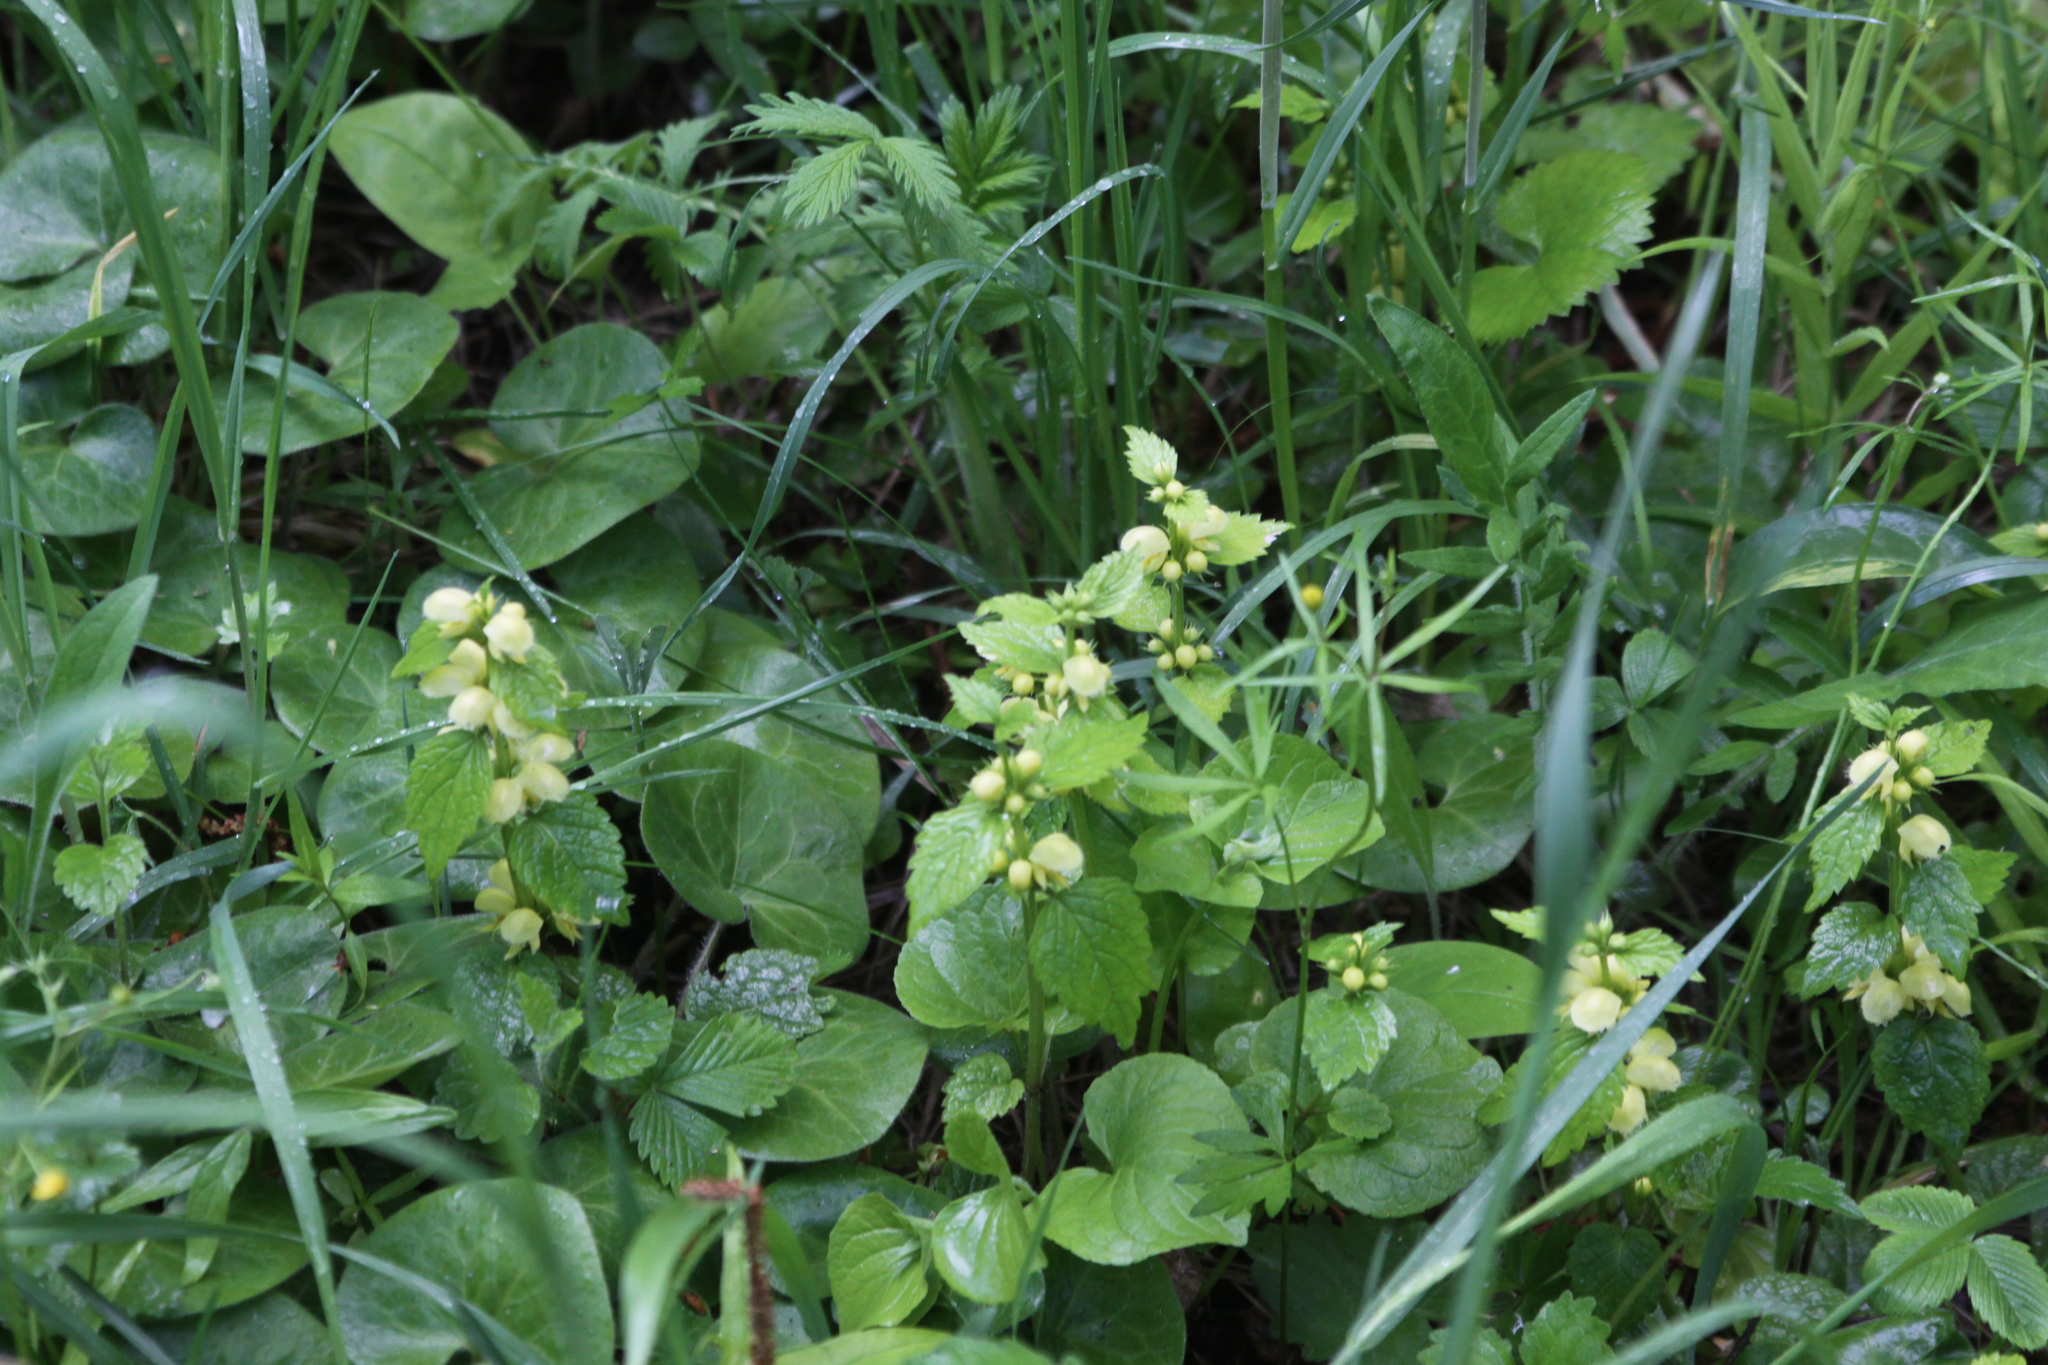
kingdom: Plantae
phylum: Tracheophyta
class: Magnoliopsida
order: Lamiales
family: Lamiaceae
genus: Lamium
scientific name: Lamium galeobdolon
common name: Yellow archangel
